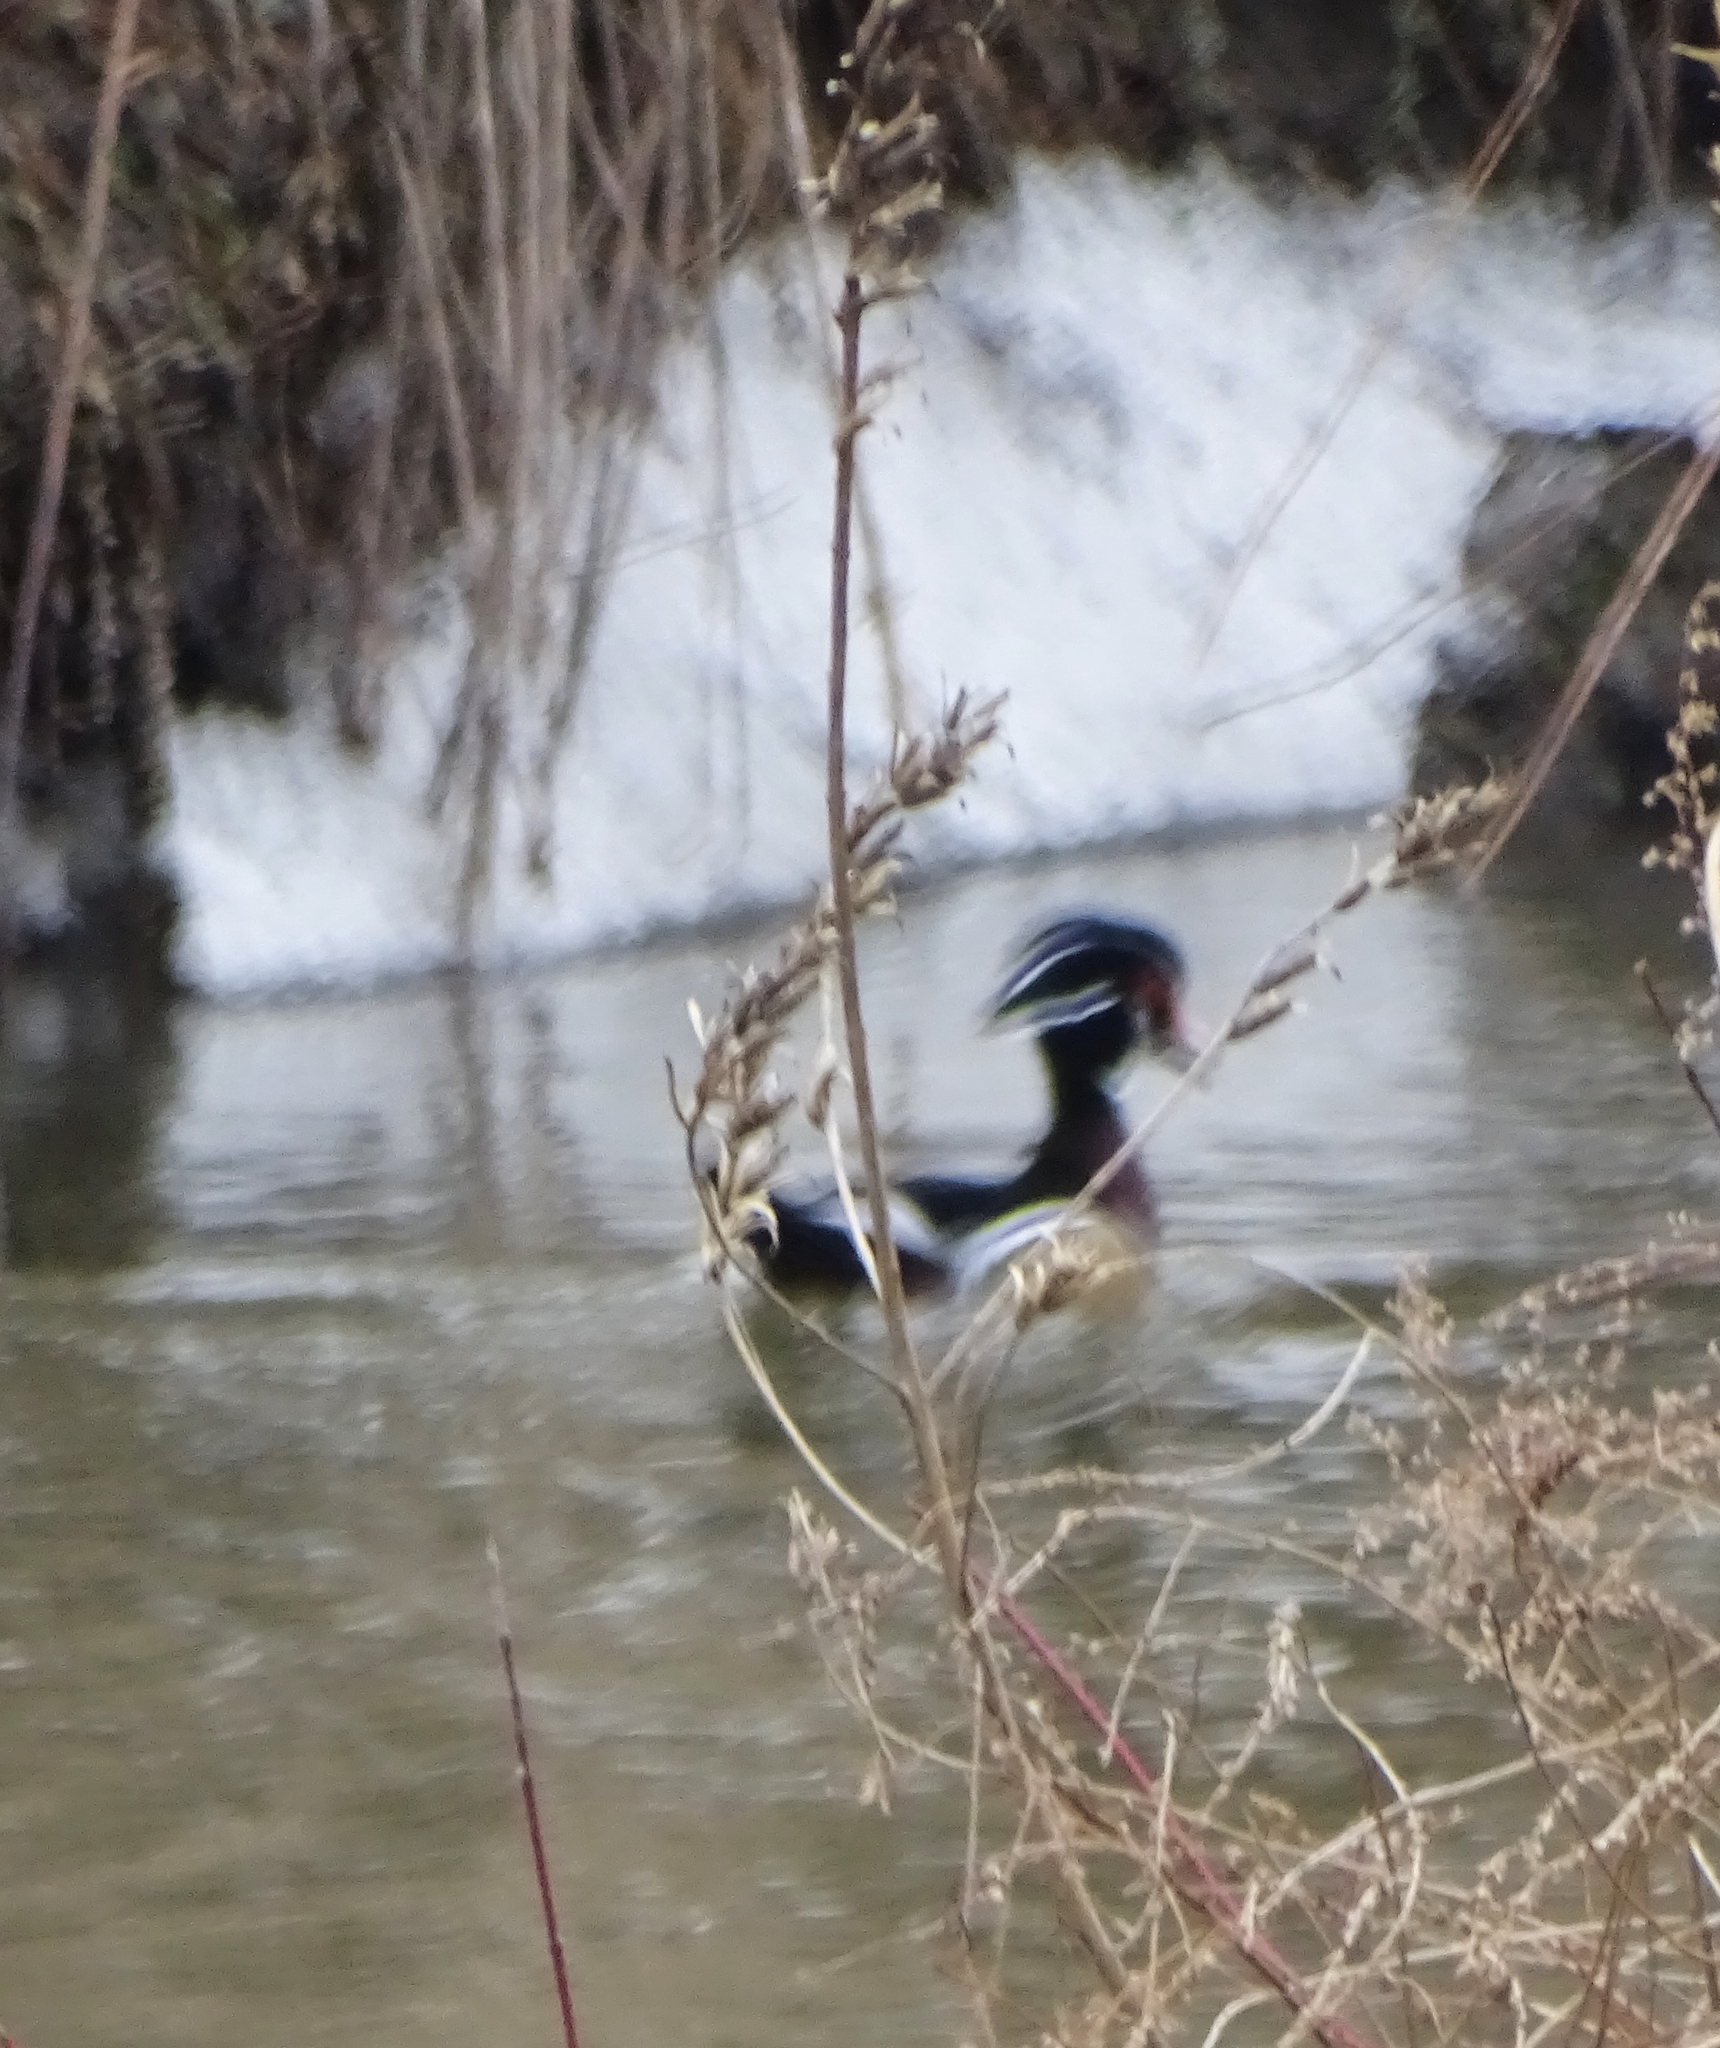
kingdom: Animalia
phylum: Chordata
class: Aves
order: Anseriformes
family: Anatidae
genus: Aix
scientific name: Aix sponsa
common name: Wood duck
